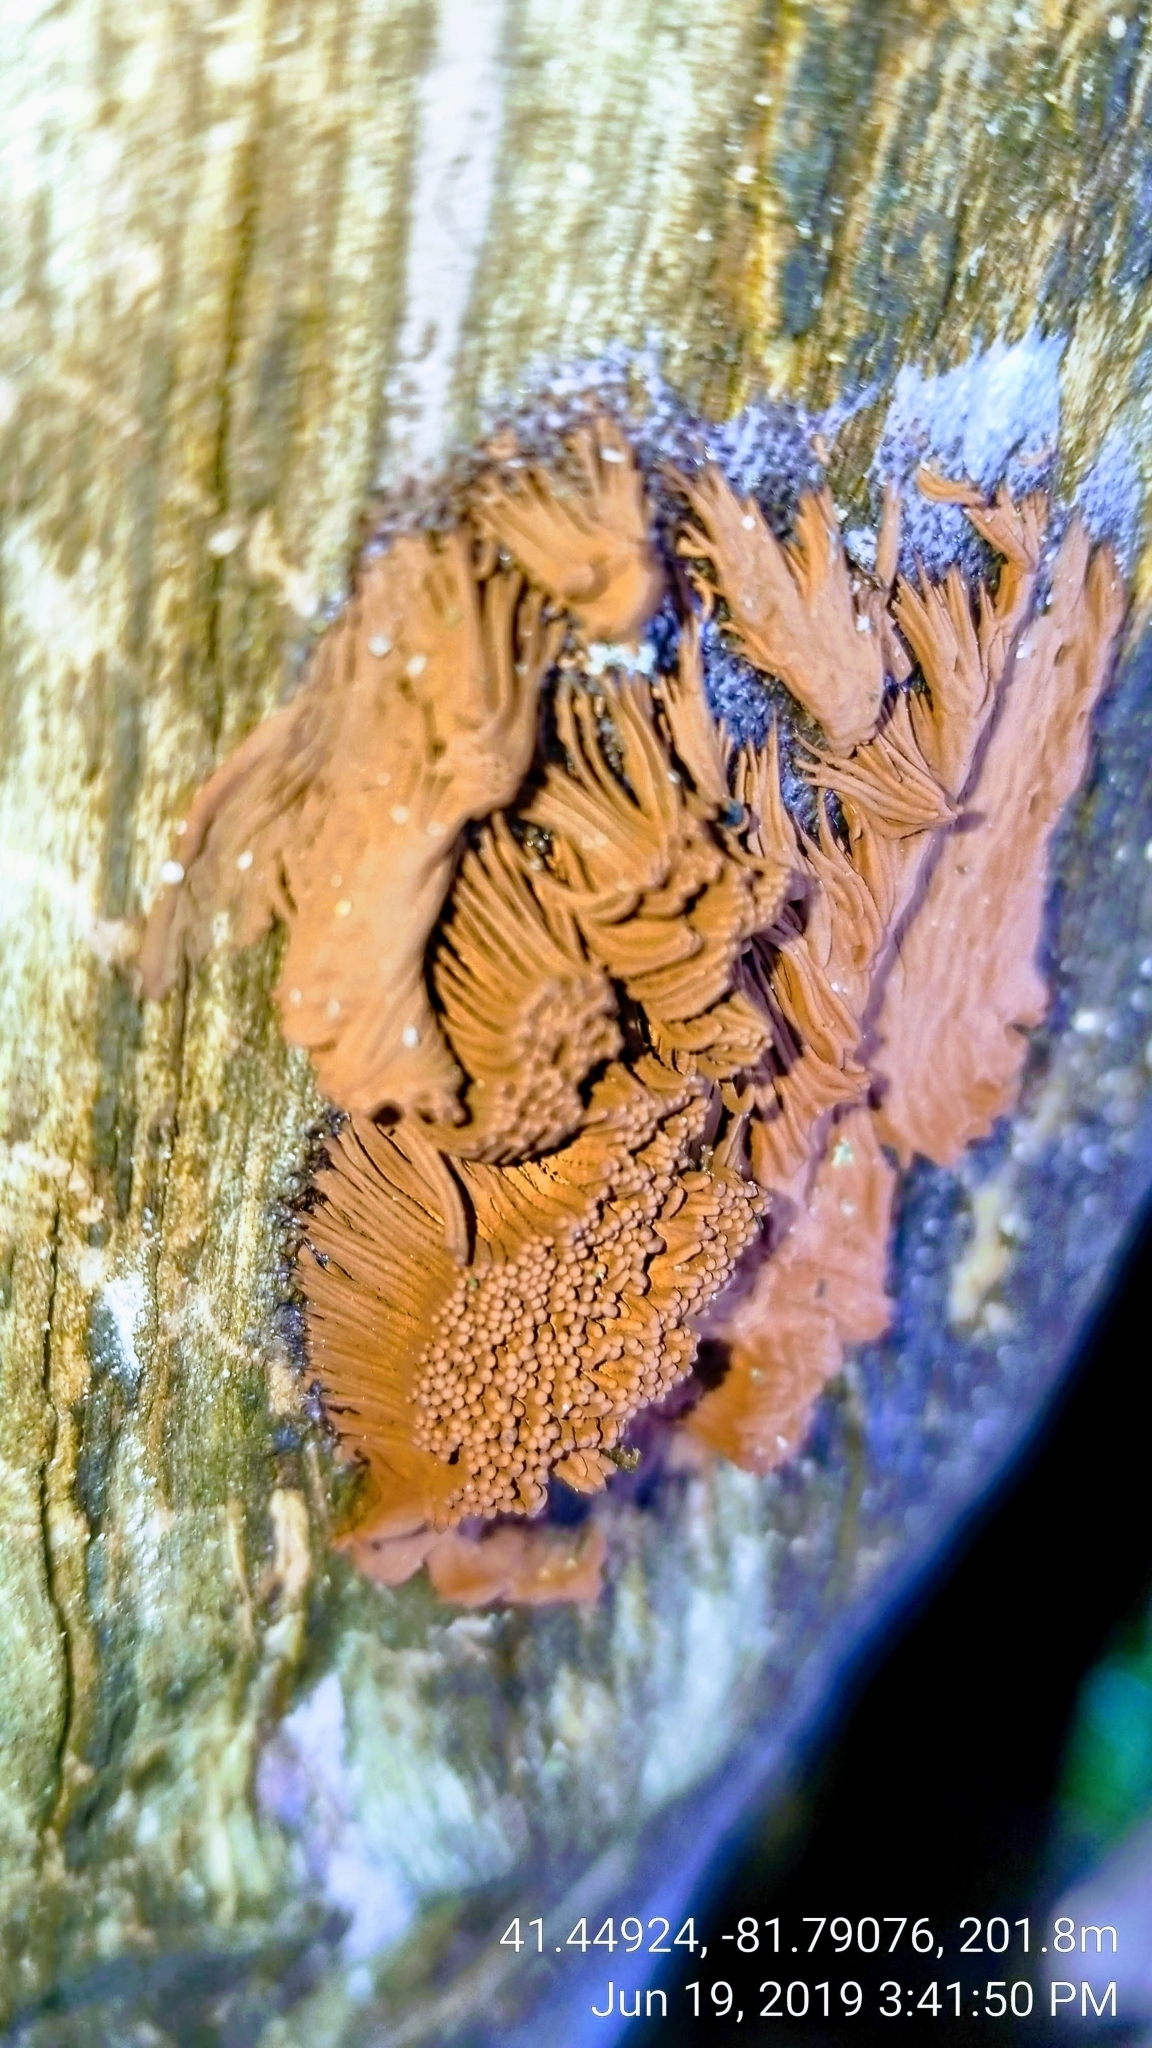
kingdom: Protozoa
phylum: Mycetozoa
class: Myxomycetes
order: Stemonitidales
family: Stemonitidaceae
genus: Stemonitis
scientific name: Stemonitis splendens
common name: Chocolate tube slime
